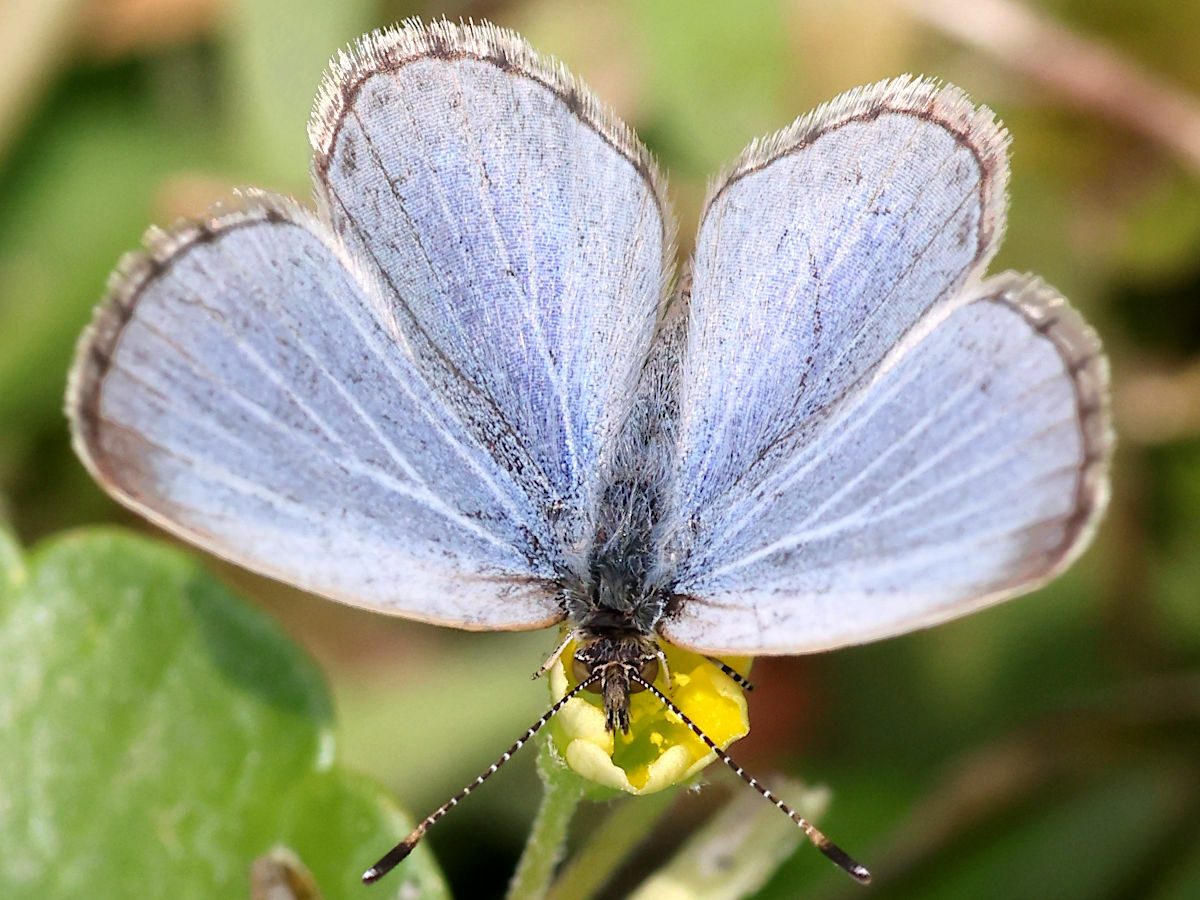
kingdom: Animalia
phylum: Arthropoda
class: Insecta
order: Lepidoptera
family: Lycaenidae
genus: Pseudozizeeria
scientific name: Pseudozizeeria maha
